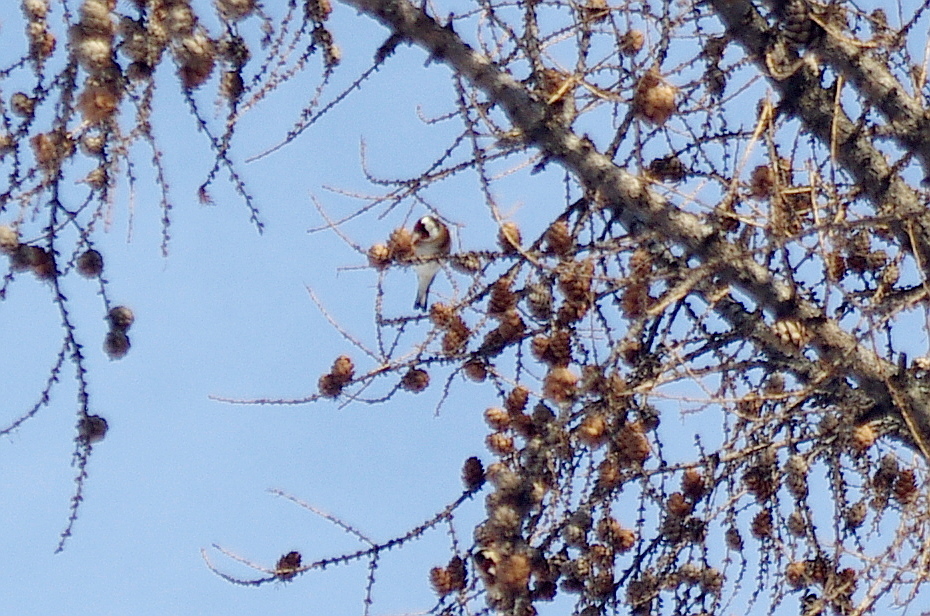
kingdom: Animalia
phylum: Chordata
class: Aves
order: Passeriformes
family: Fringillidae
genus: Carduelis
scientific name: Carduelis carduelis
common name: European goldfinch
